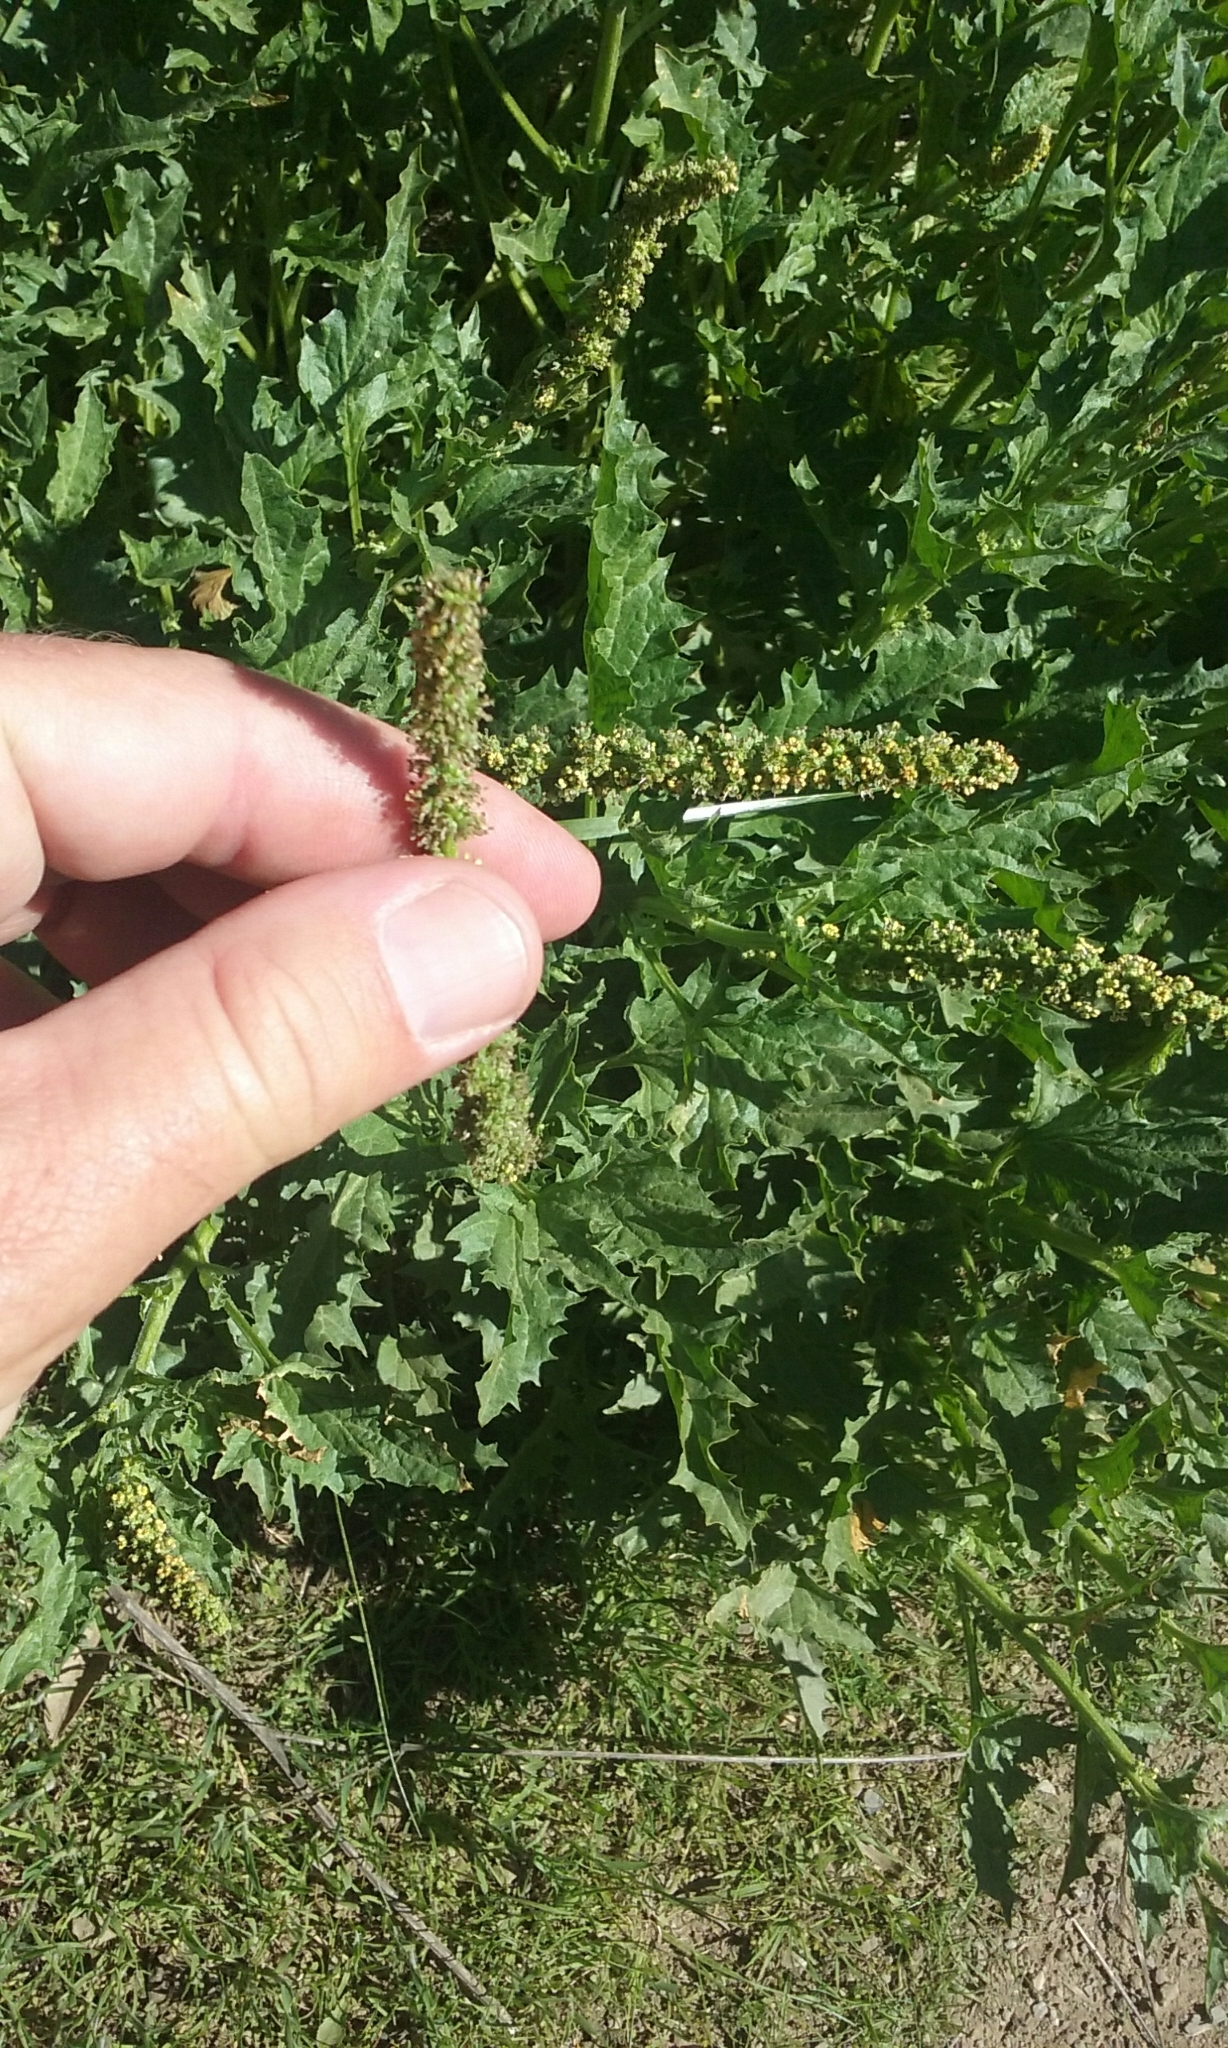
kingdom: Plantae
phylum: Tracheophyta
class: Magnoliopsida
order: Caryophyllales
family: Amaranthaceae
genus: Blitum
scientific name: Blitum californicum
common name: California goosefoot
